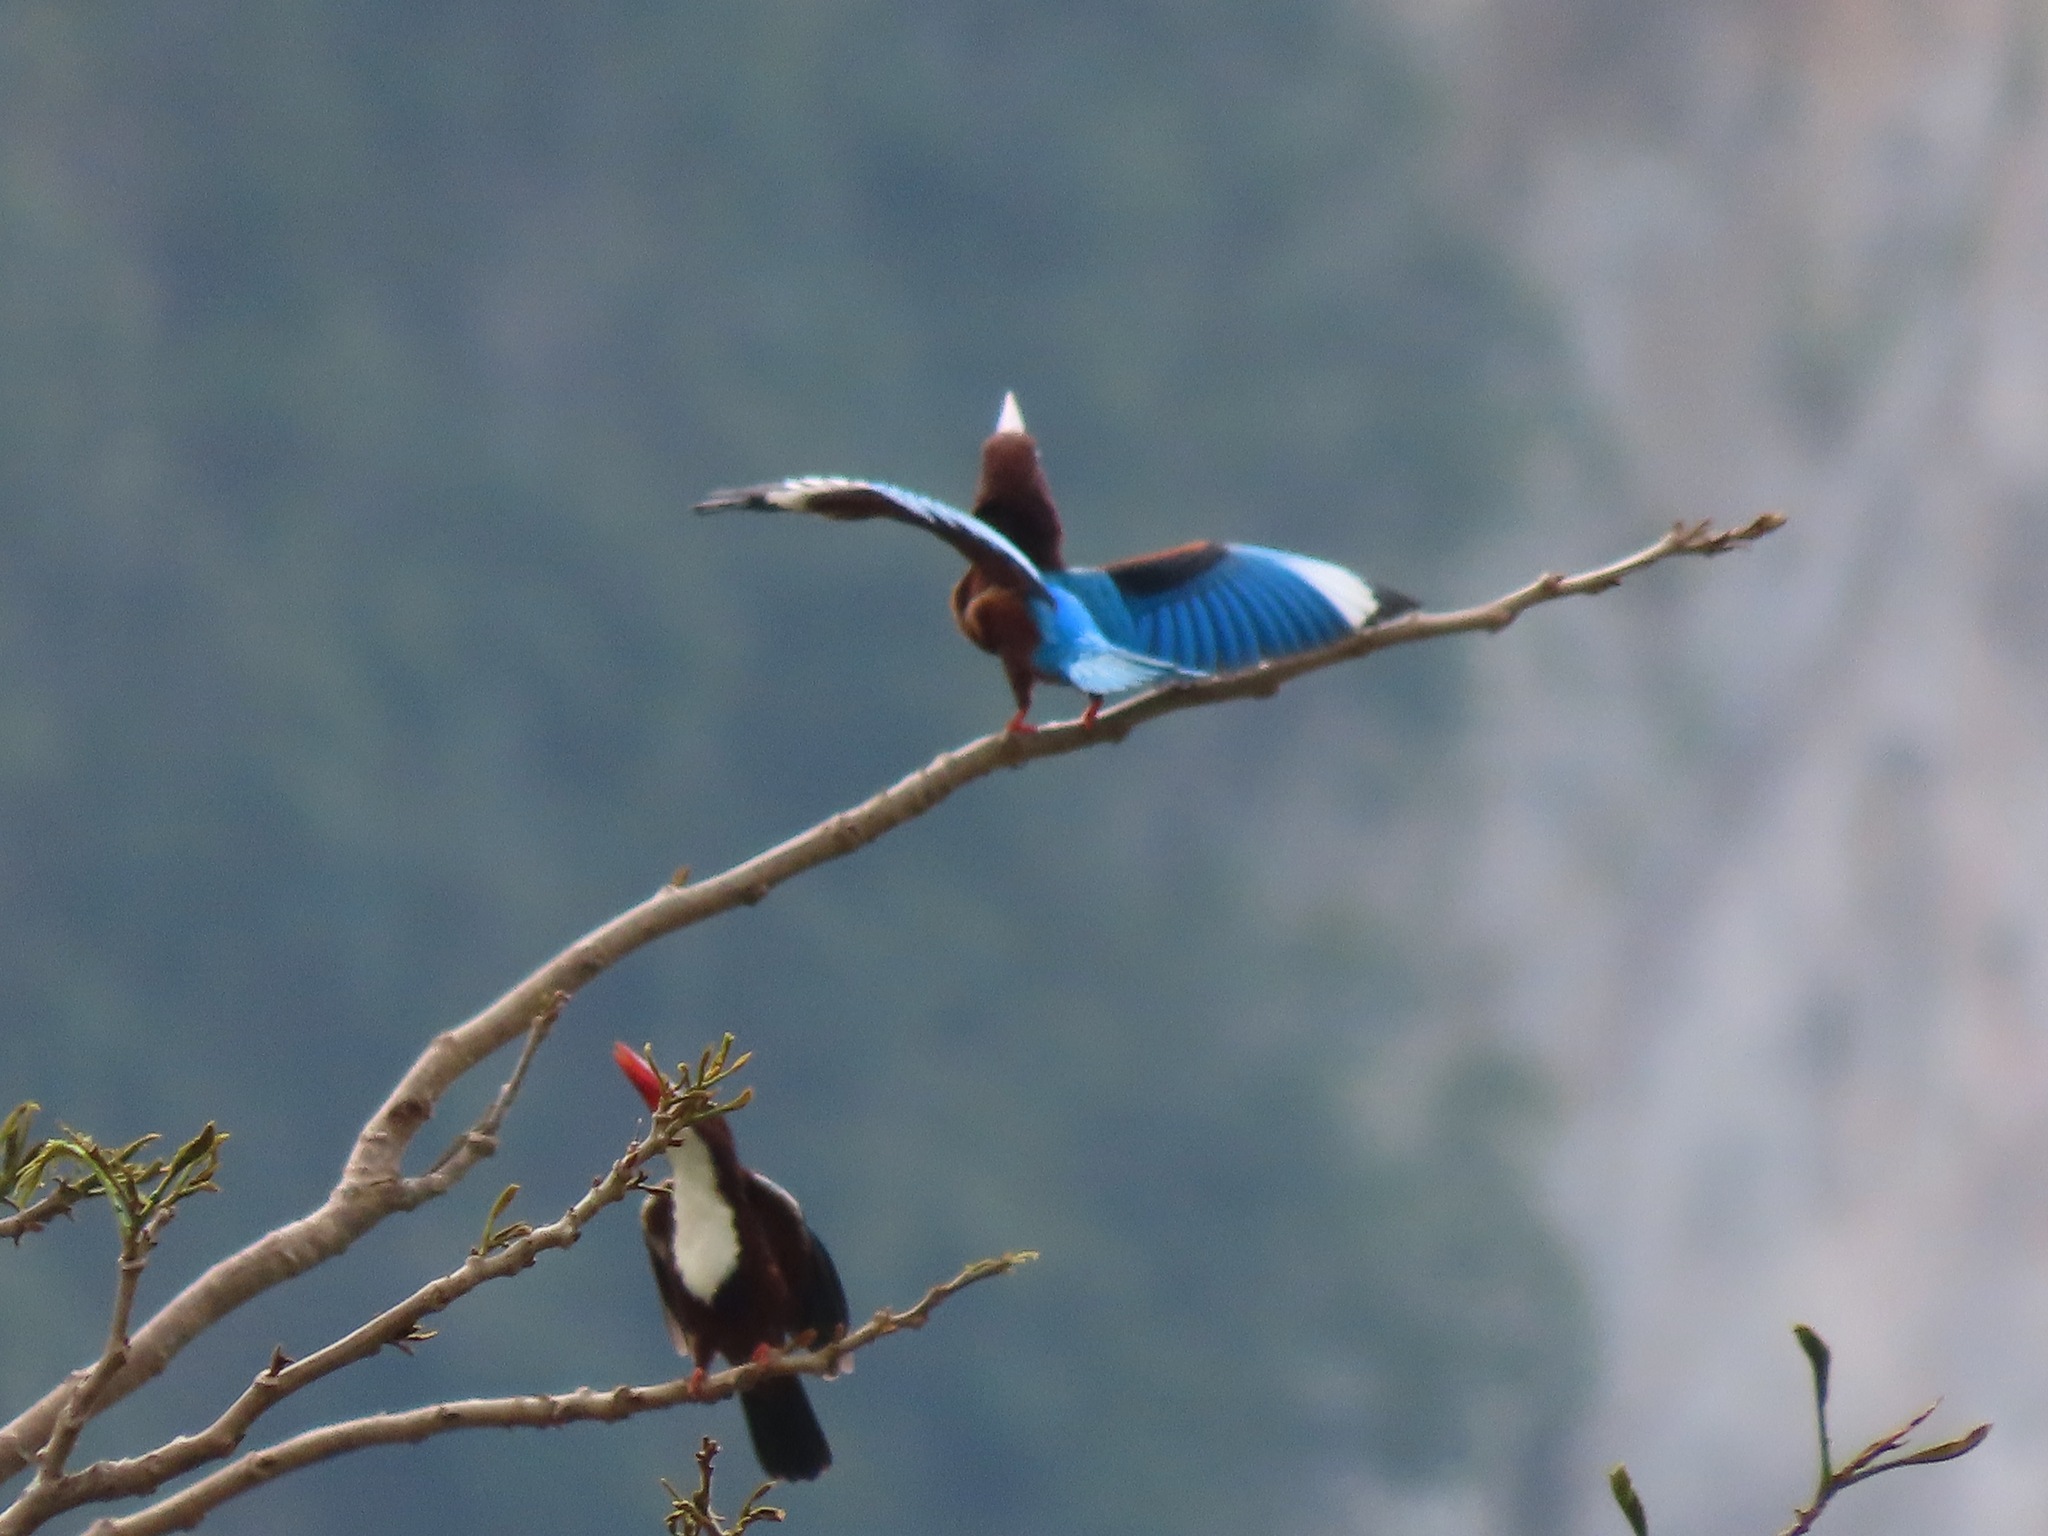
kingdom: Animalia
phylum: Chordata
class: Aves
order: Coraciiformes
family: Alcedinidae
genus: Halcyon
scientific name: Halcyon smyrnensis
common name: White-throated kingfisher
